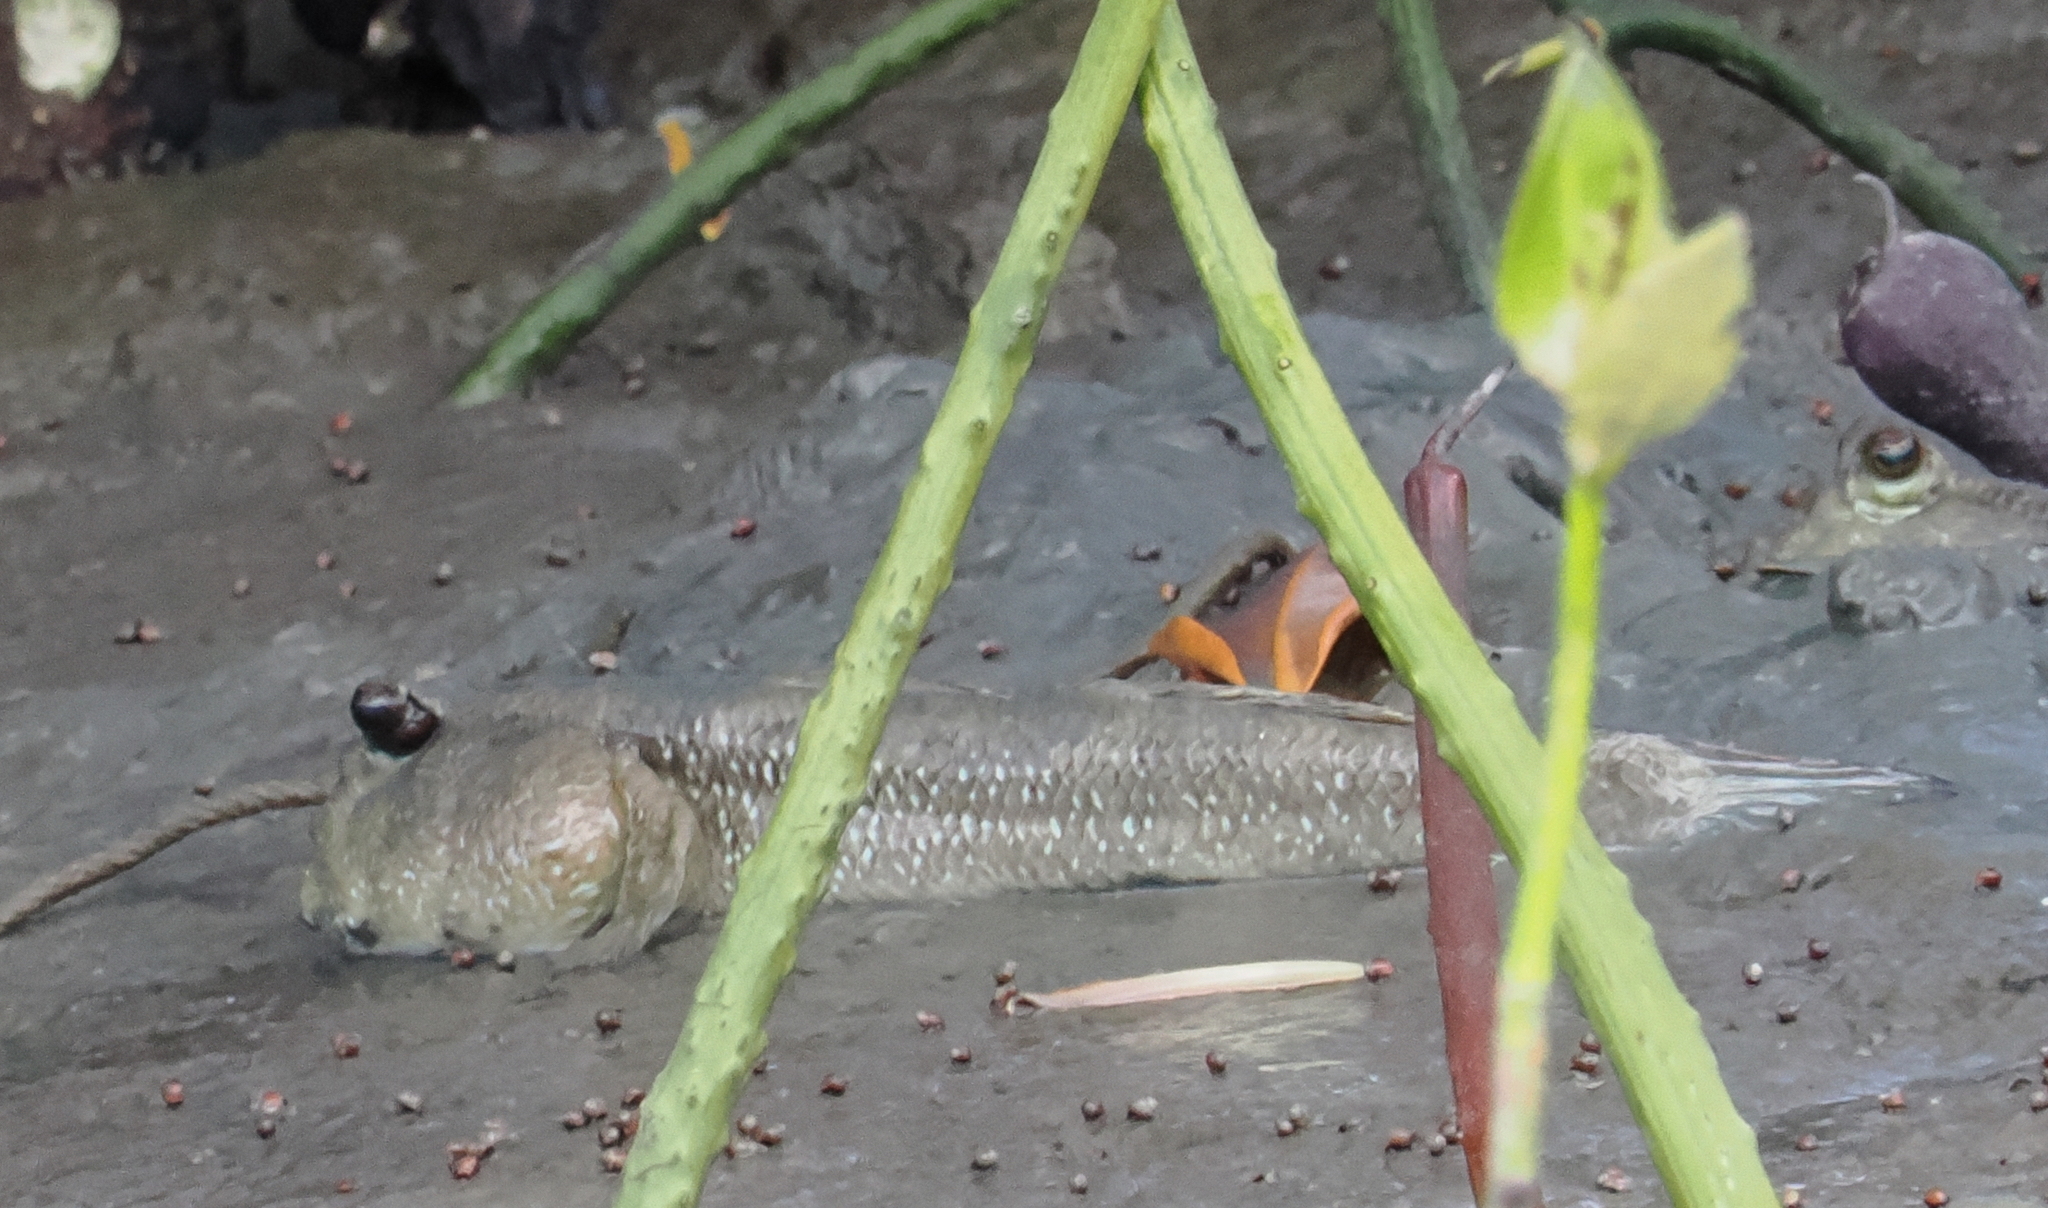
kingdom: Animalia
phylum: Chordata
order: Perciformes
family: Gobiidae
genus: Periophthalmodon
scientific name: Periophthalmodon schlosseri
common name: Giant mudskipper
